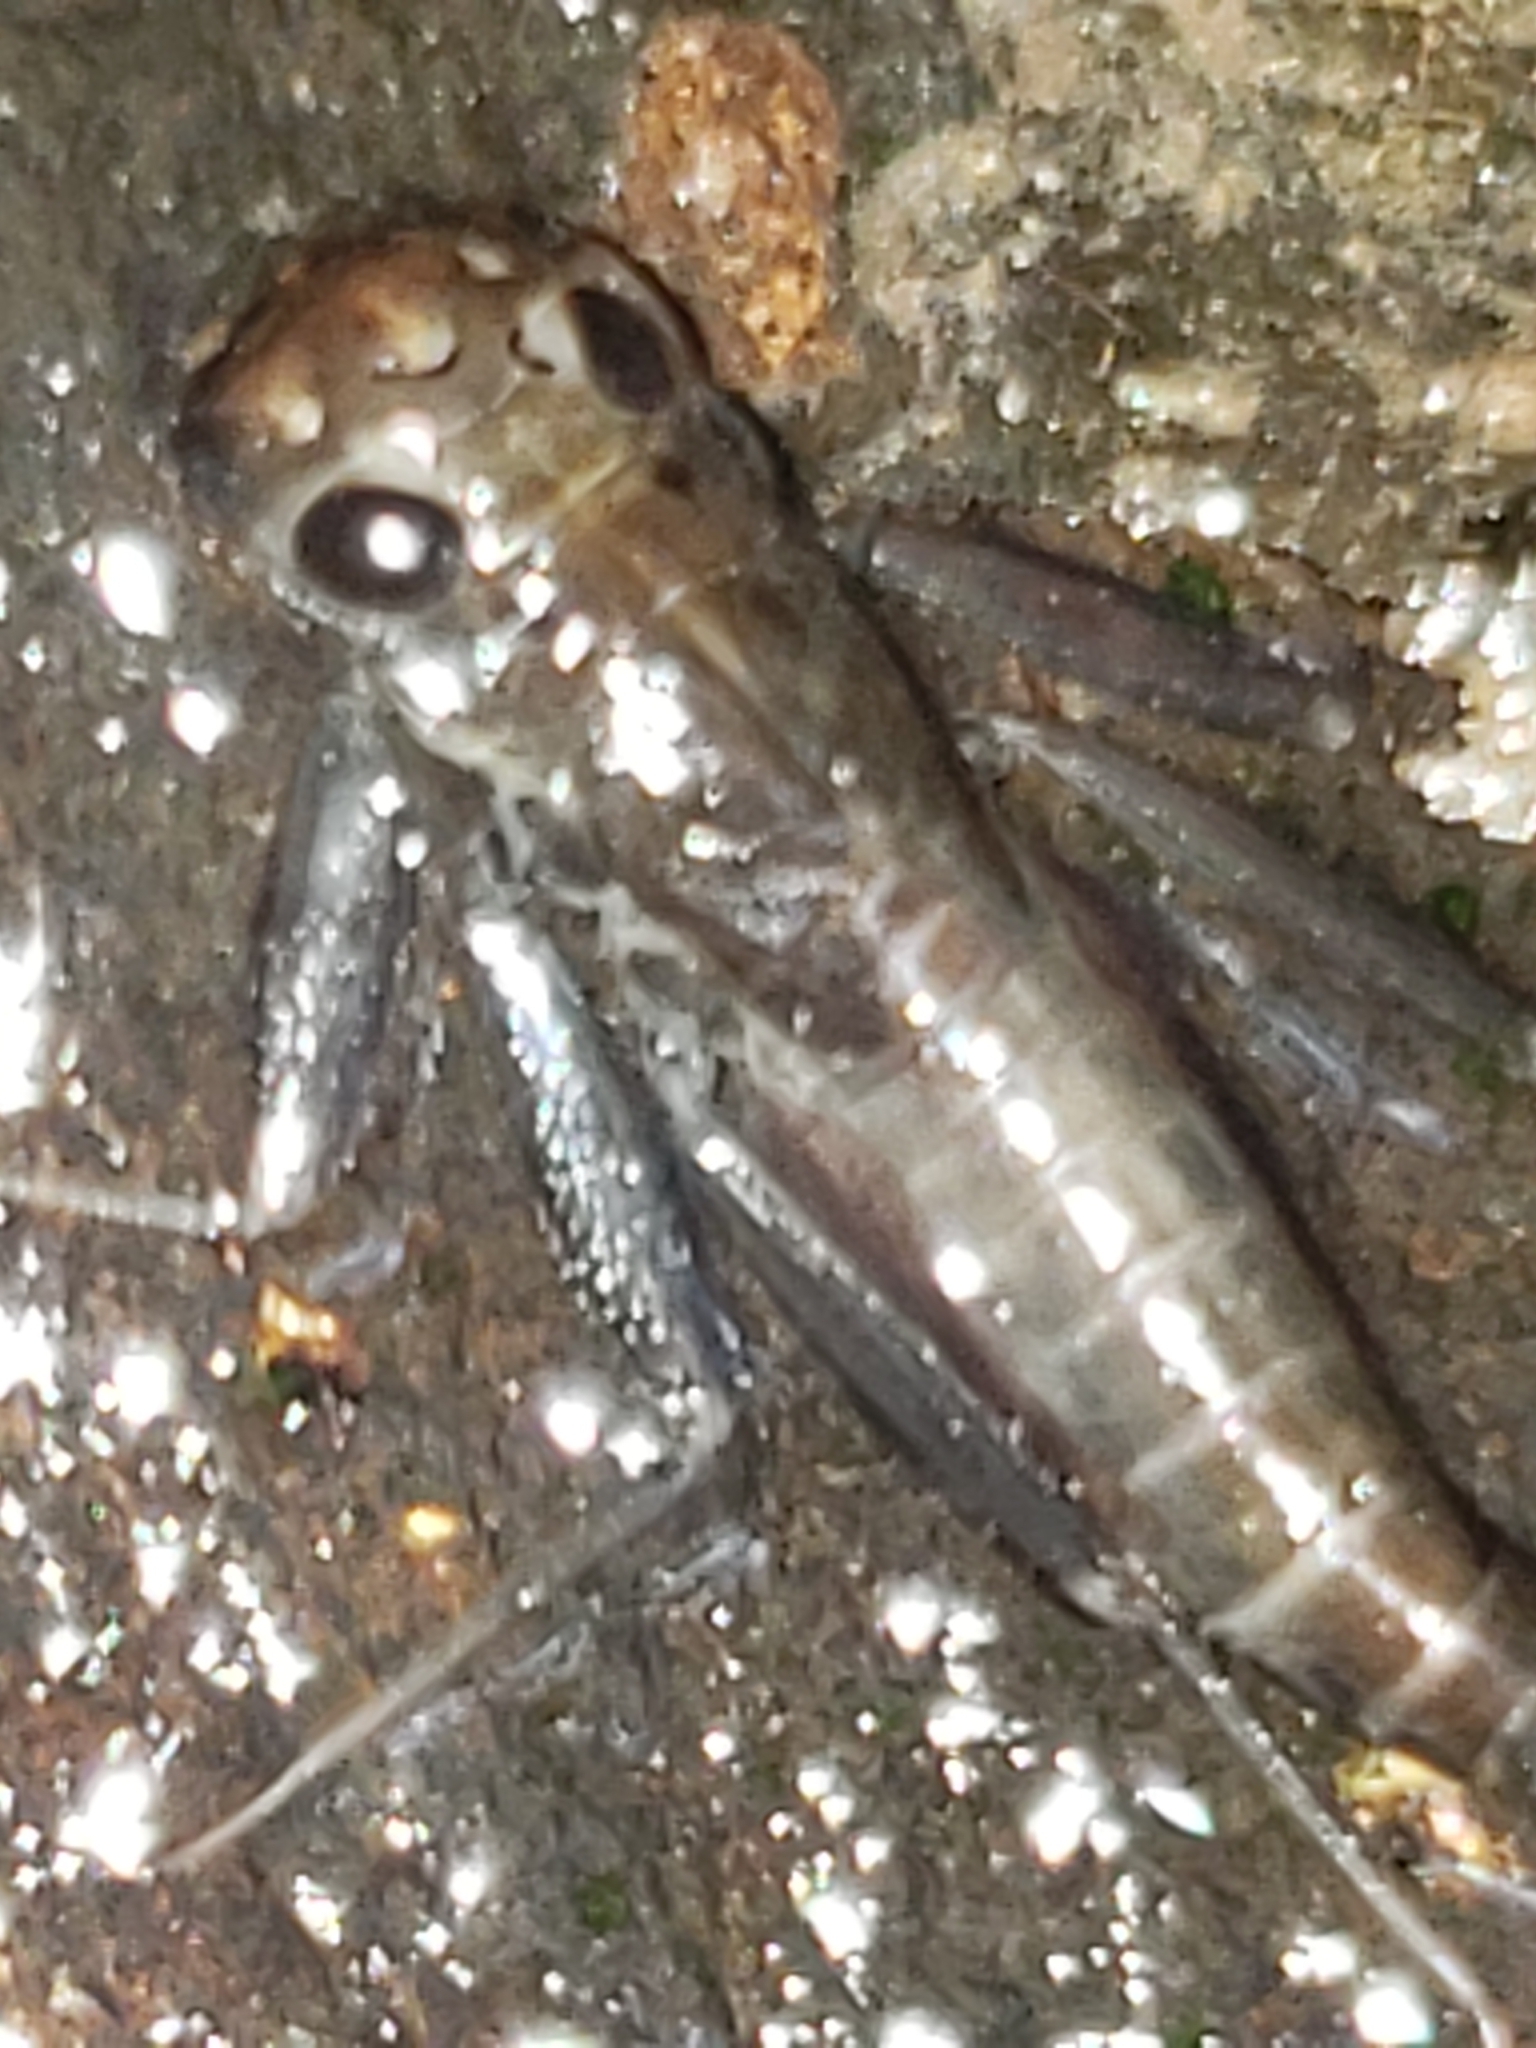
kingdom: Animalia
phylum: Arthropoda
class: Insecta
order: Ephemeroptera
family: Heptageniidae
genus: Stenacron
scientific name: Stenacron interpunctatum
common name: Orange cahill
